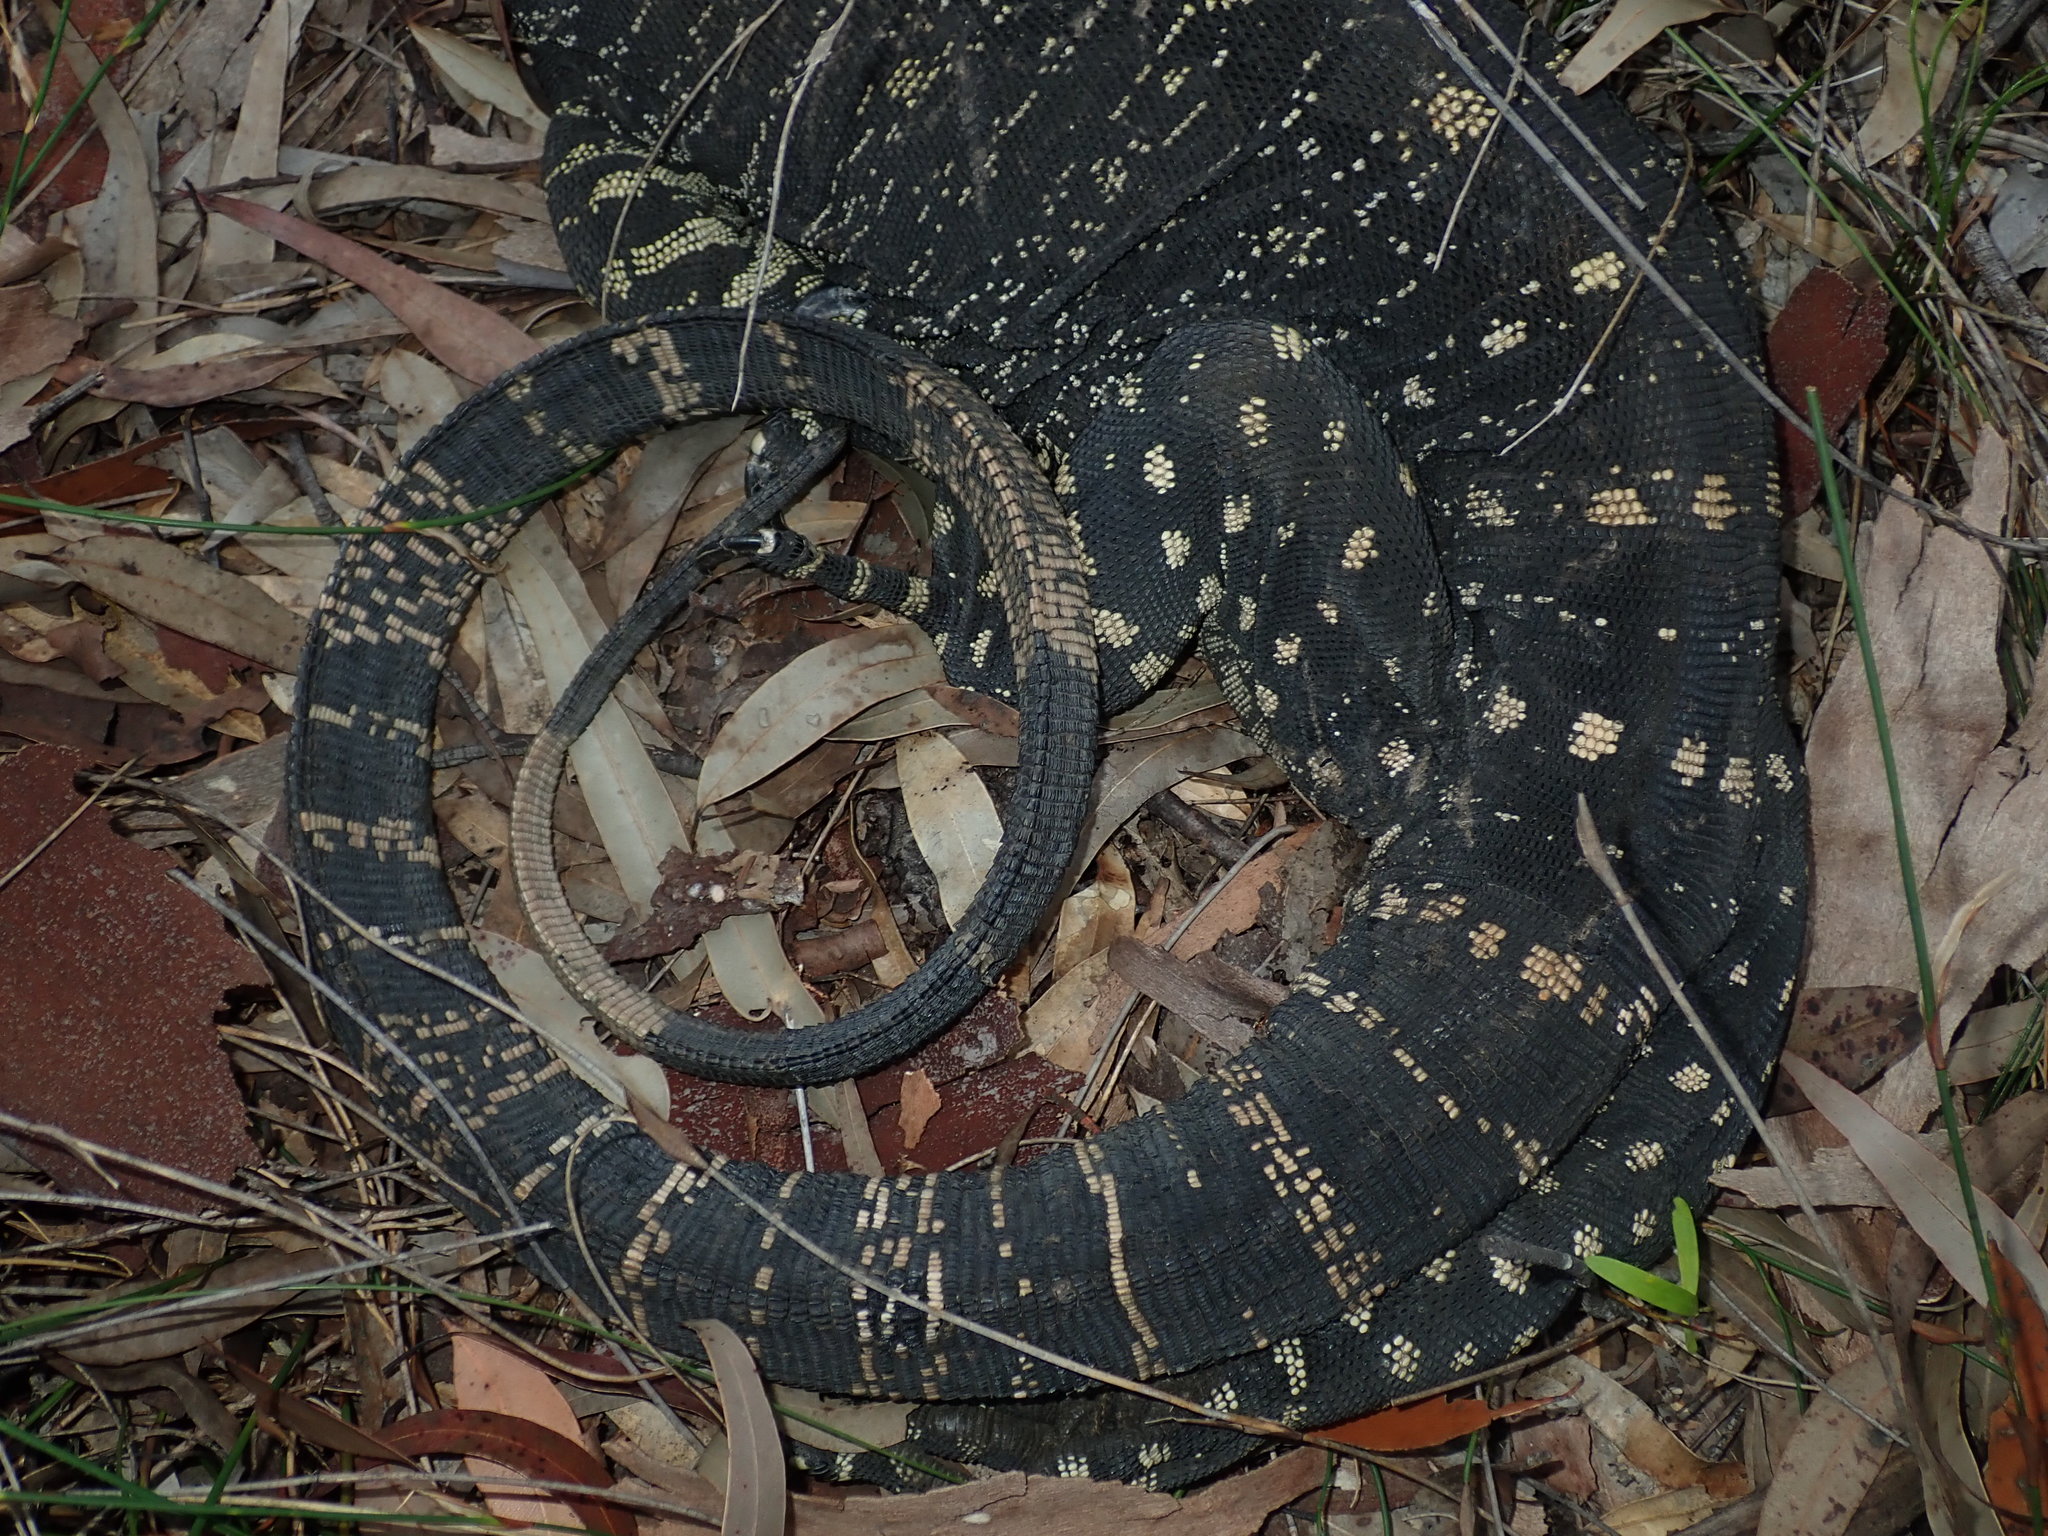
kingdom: Animalia
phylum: Chordata
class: Squamata
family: Varanidae
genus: Varanus
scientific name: Varanus varius
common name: Lace monitor
